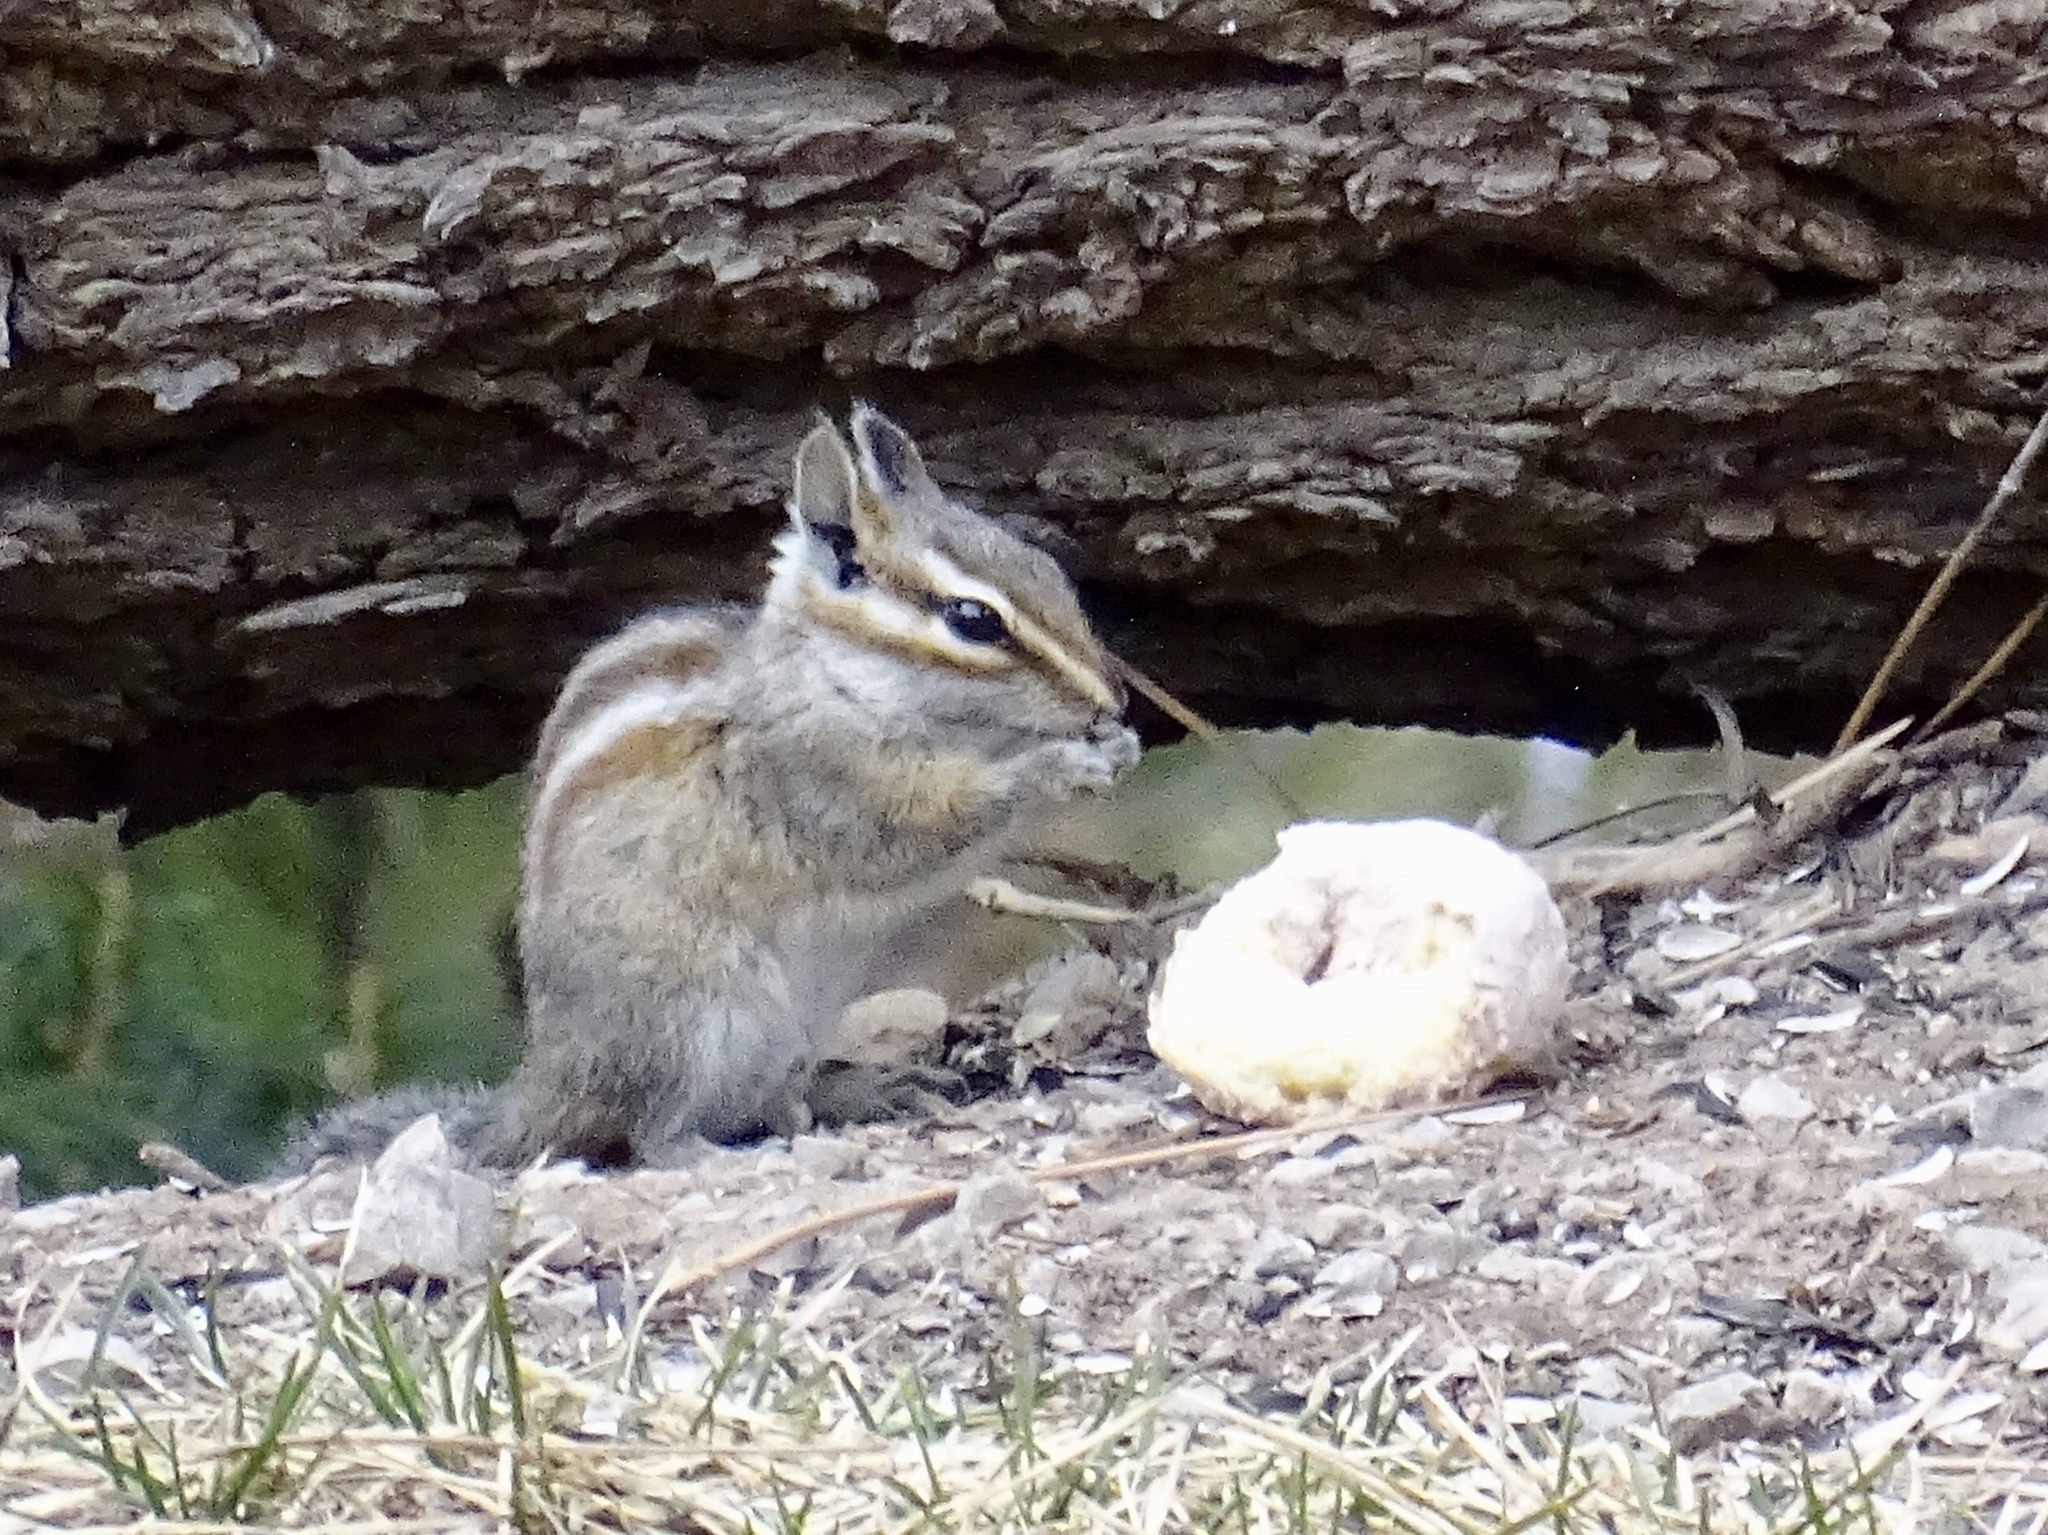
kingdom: Animalia
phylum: Chordata
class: Mammalia
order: Rodentia
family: Sciuridae
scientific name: Sciuridae
